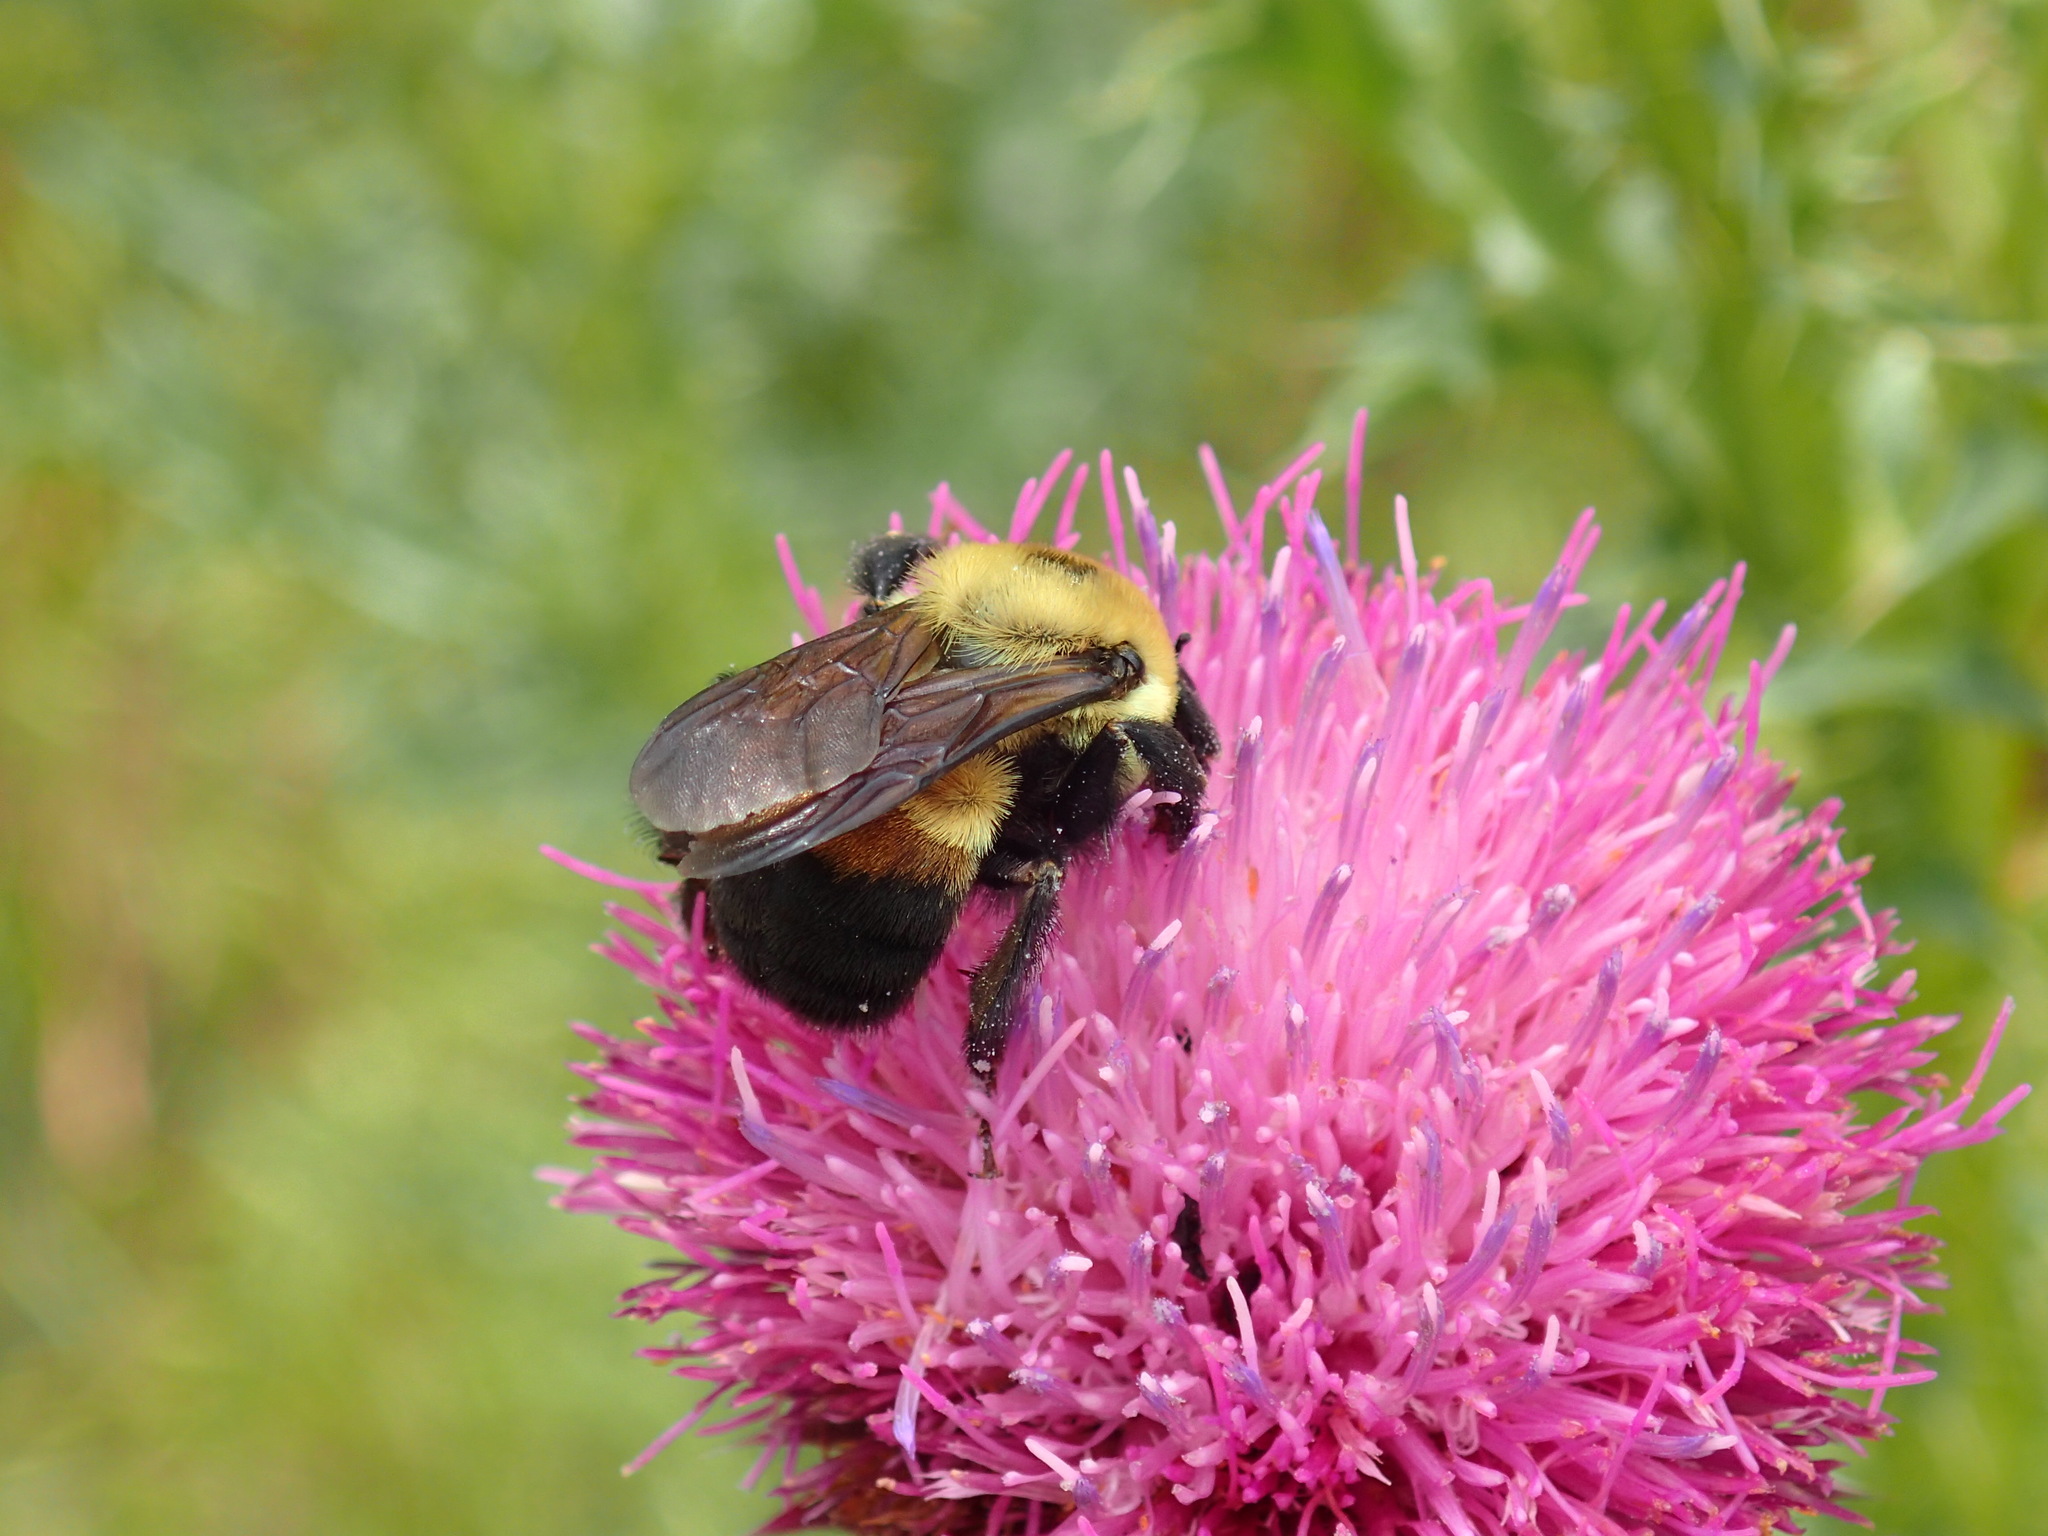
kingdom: Animalia
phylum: Arthropoda
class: Insecta
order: Hymenoptera
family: Apidae
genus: Bombus
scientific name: Bombus griseocollis
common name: Brown-belted bumble bee
